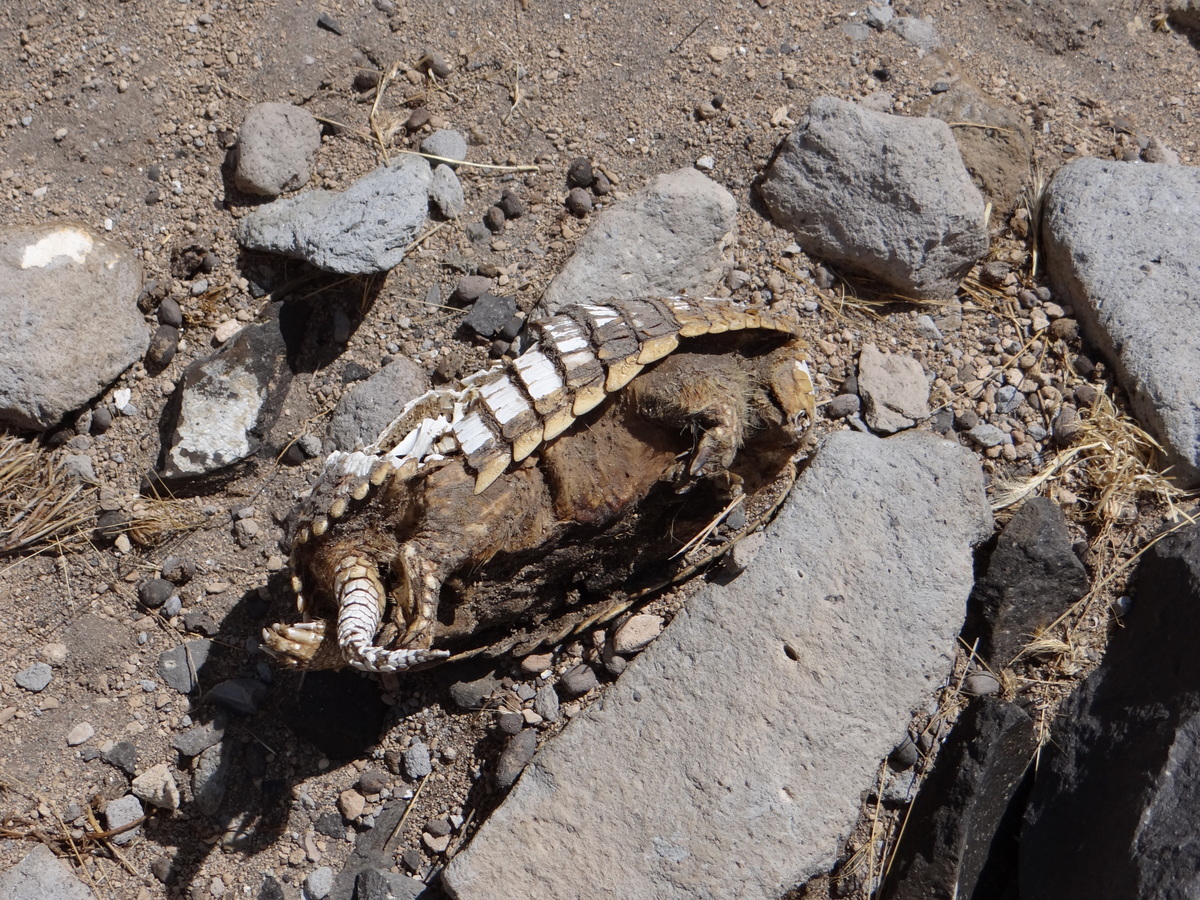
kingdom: Animalia
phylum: Chordata
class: Mammalia
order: Cingulata
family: Dasypodidae
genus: Zaedyus
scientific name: Zaedyus pichiy
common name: Pichi
